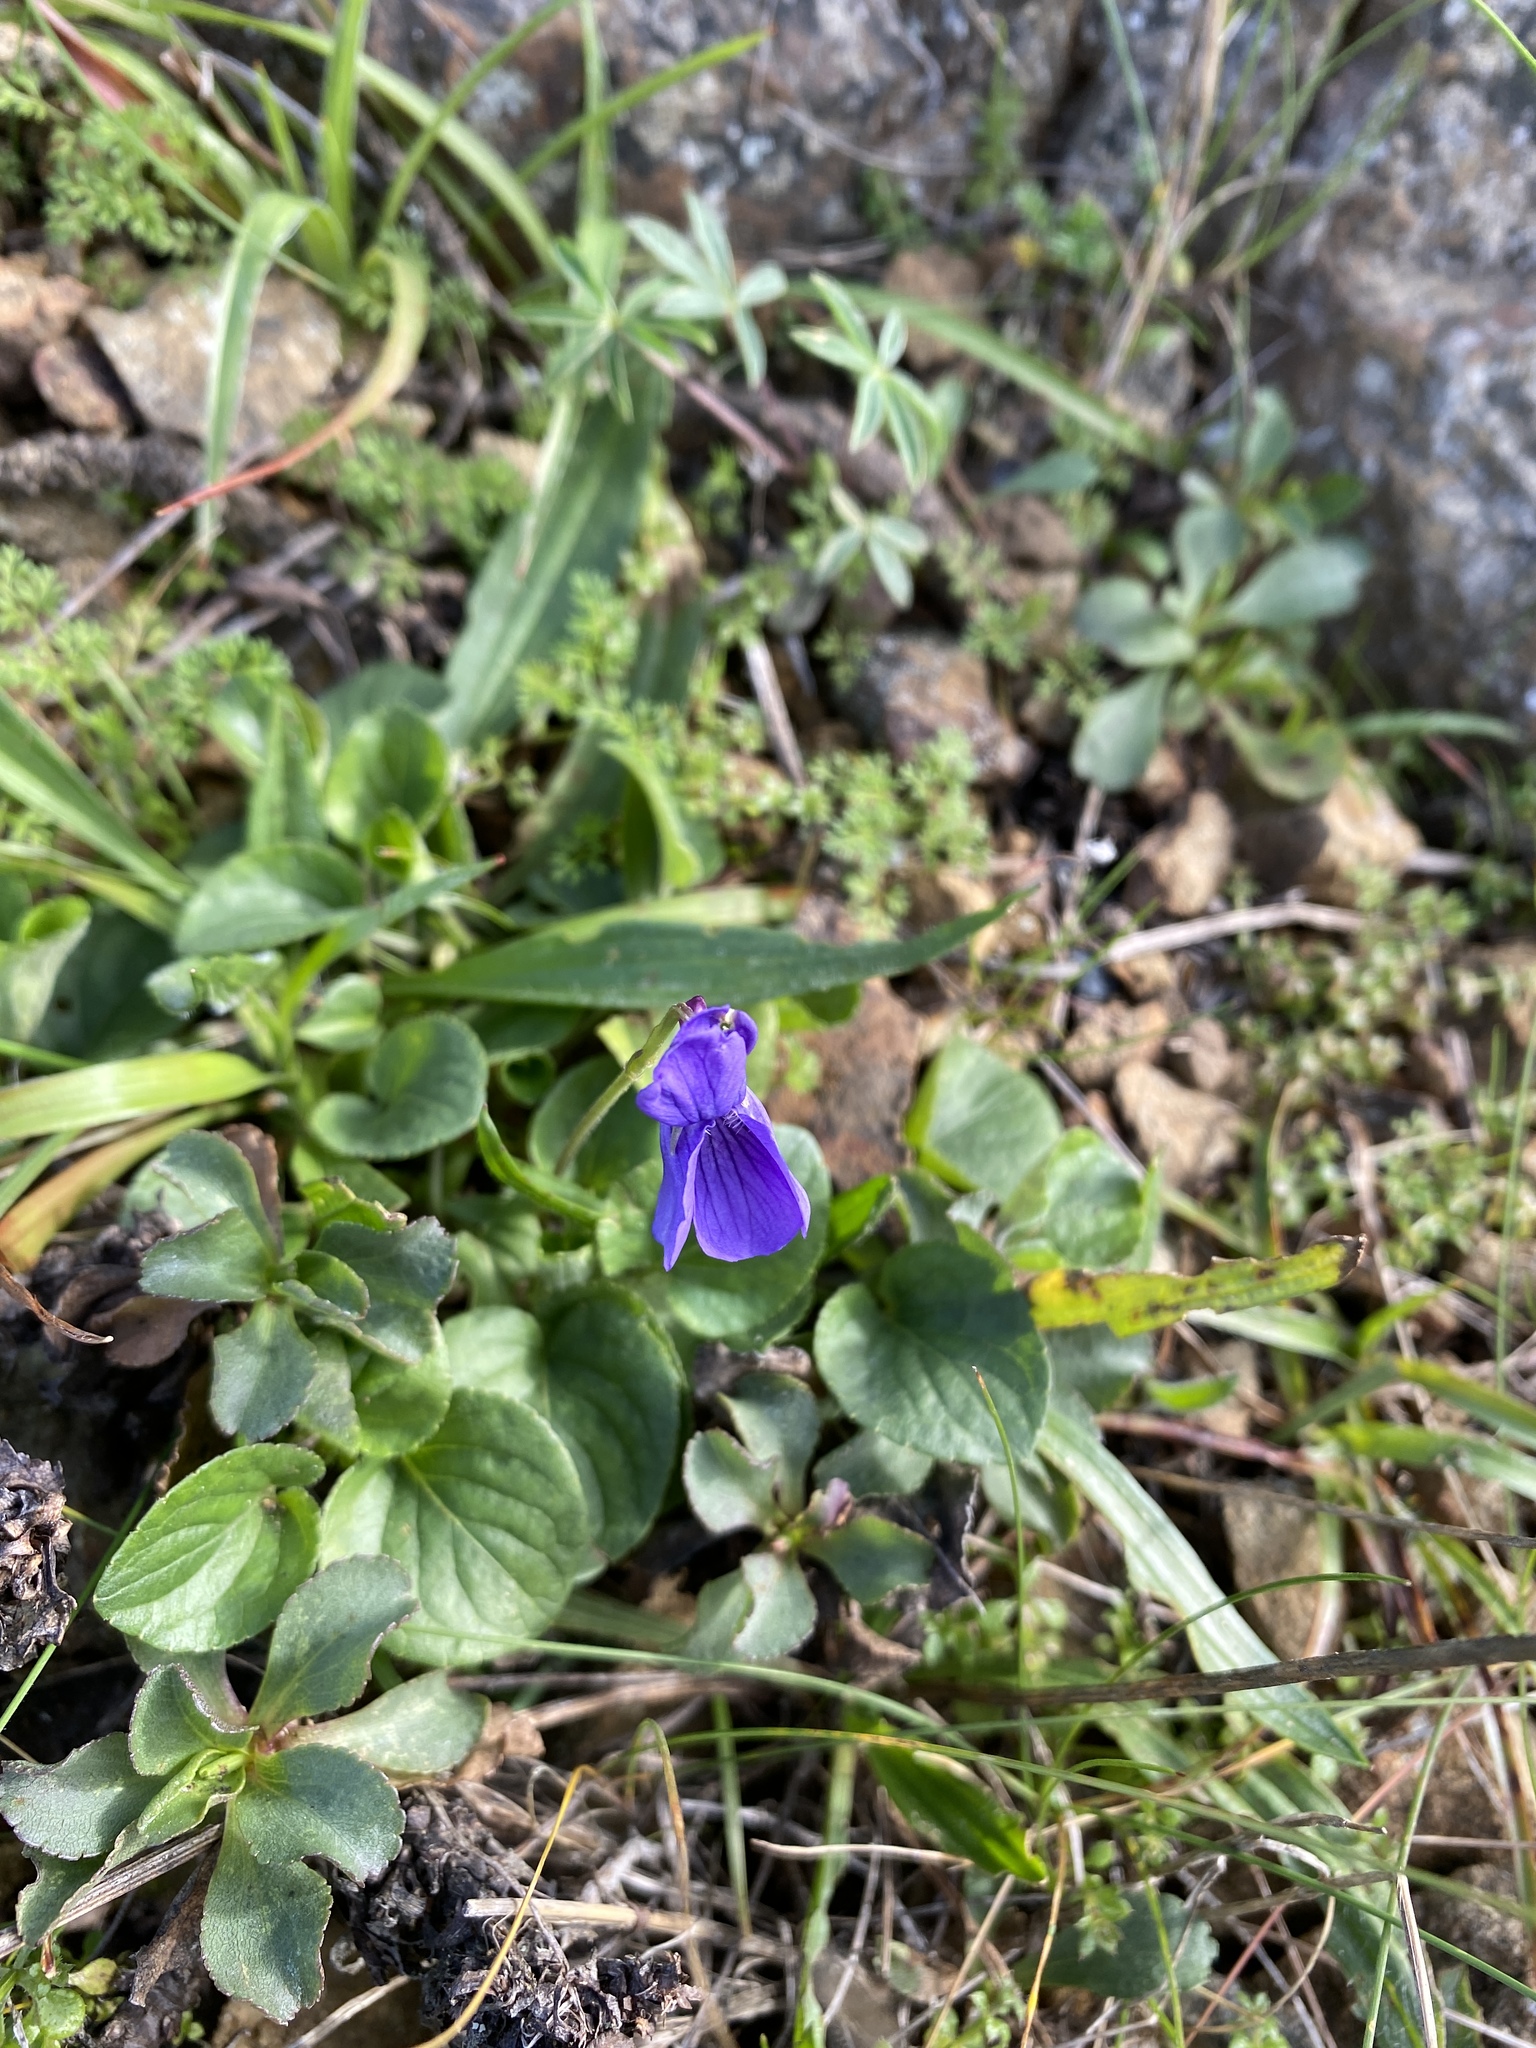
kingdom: Plantae
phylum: Tracheophyta
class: Magnoliopsida
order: Malpighiales
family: Violaceae
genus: Viola
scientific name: Viola adunca
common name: Sand violet
